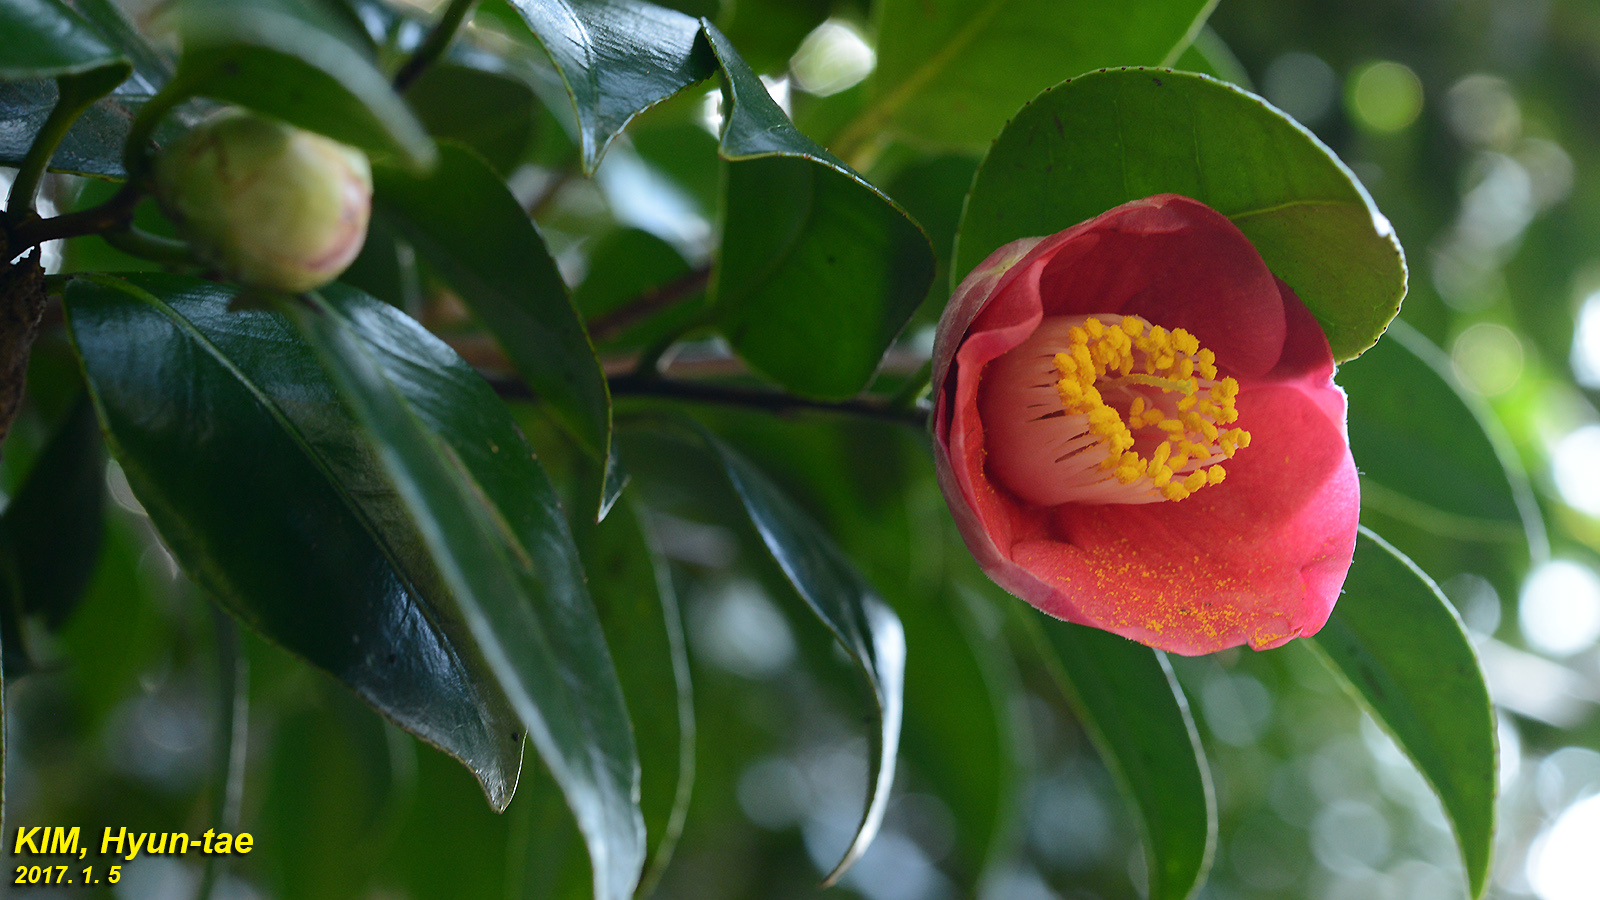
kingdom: Plantae
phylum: Tracheophyta
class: Magnoliopsida
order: Ericales
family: Theaceae
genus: Camellia
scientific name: Camellia japonica
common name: Camellia
